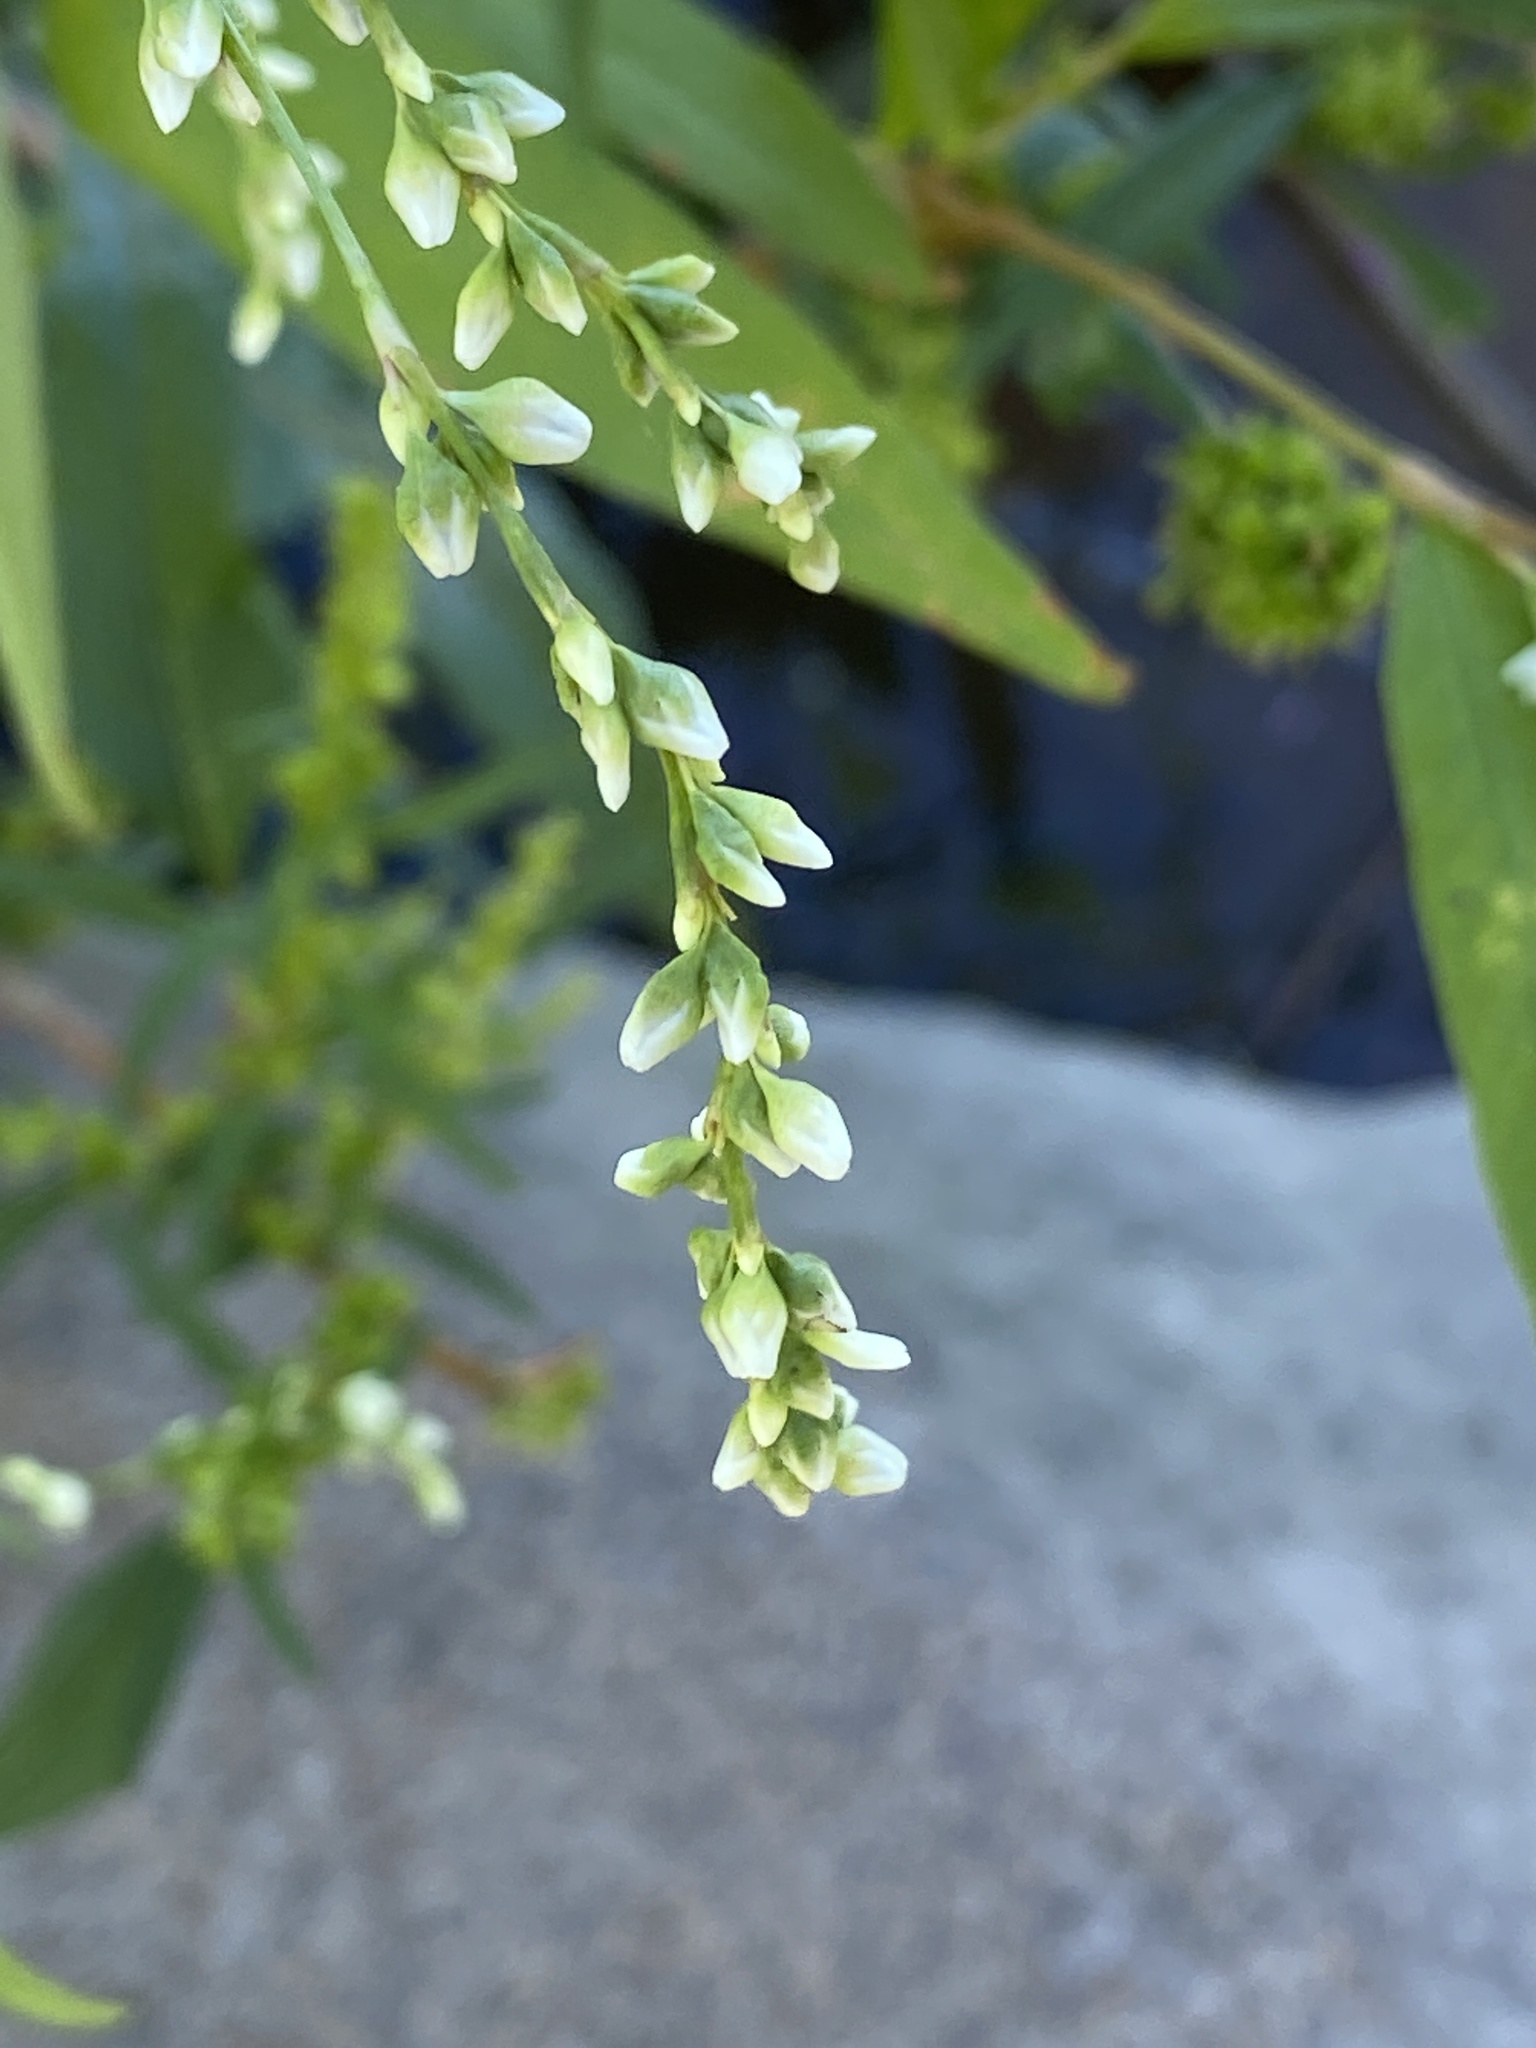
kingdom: Plantae
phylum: Tracheophyta
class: Magnoliopsida
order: Caryophyllales
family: Polygonaceae
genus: Persicaria
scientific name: Persicaria punctata
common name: Dotted smartweed
